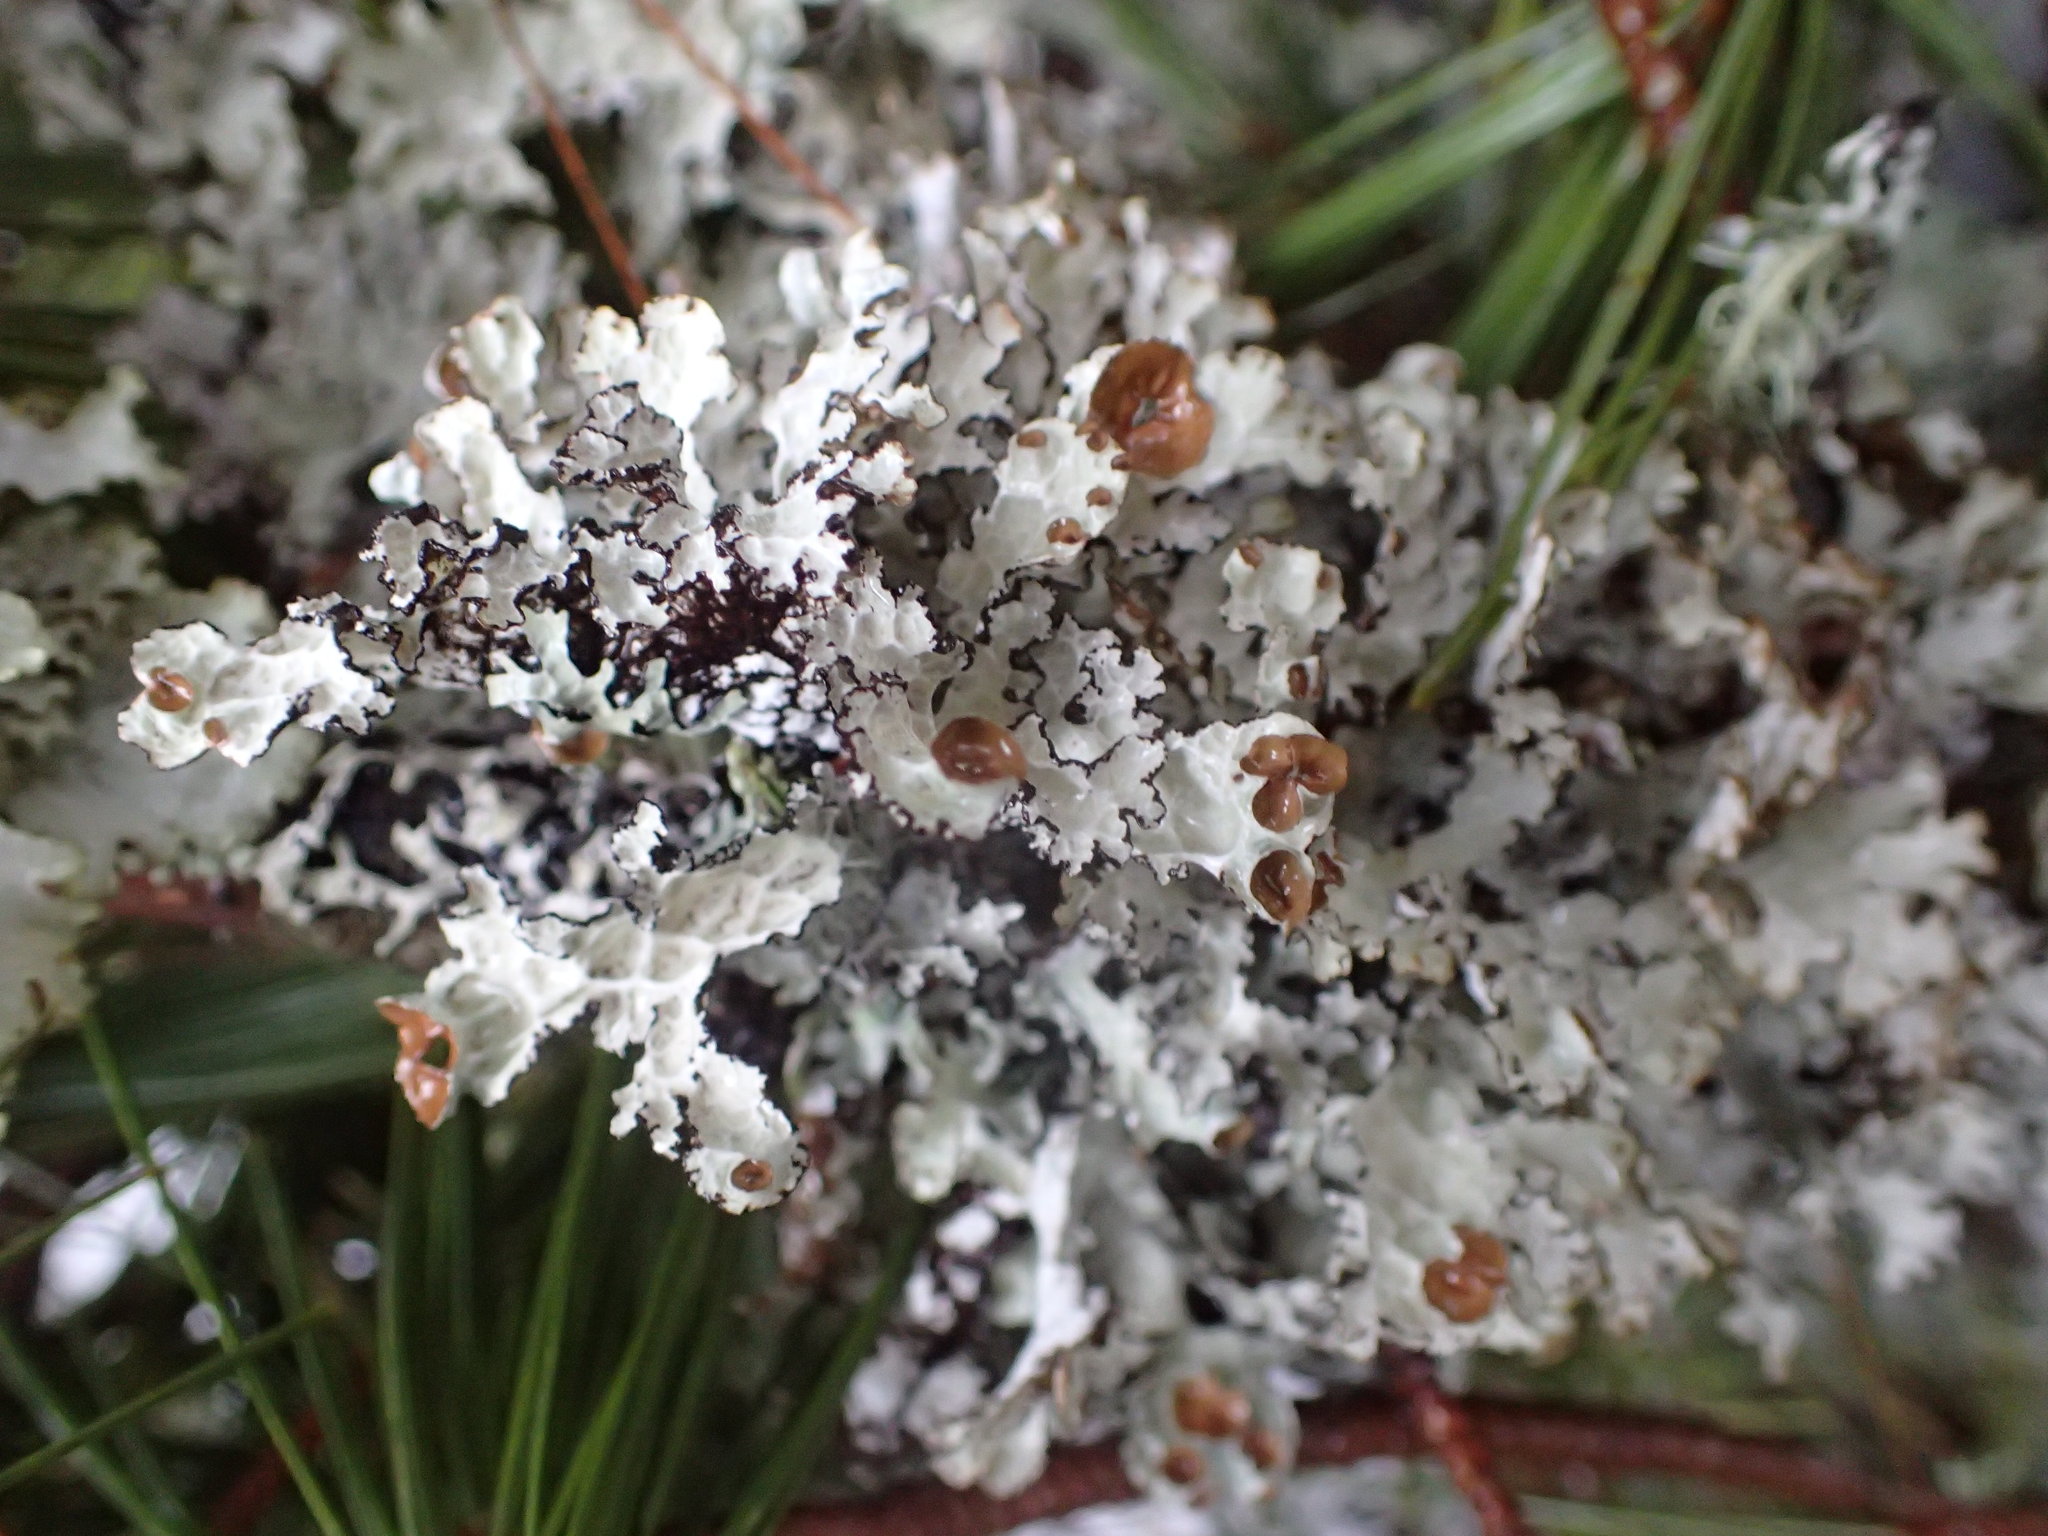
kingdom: Fungi
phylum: Ascomycota
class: Lecanoromycetes
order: Lecanorales
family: Parmeliaceae
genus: Platismatia
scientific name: Platismatia tuckermanii
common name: Crumpled rag lichen
